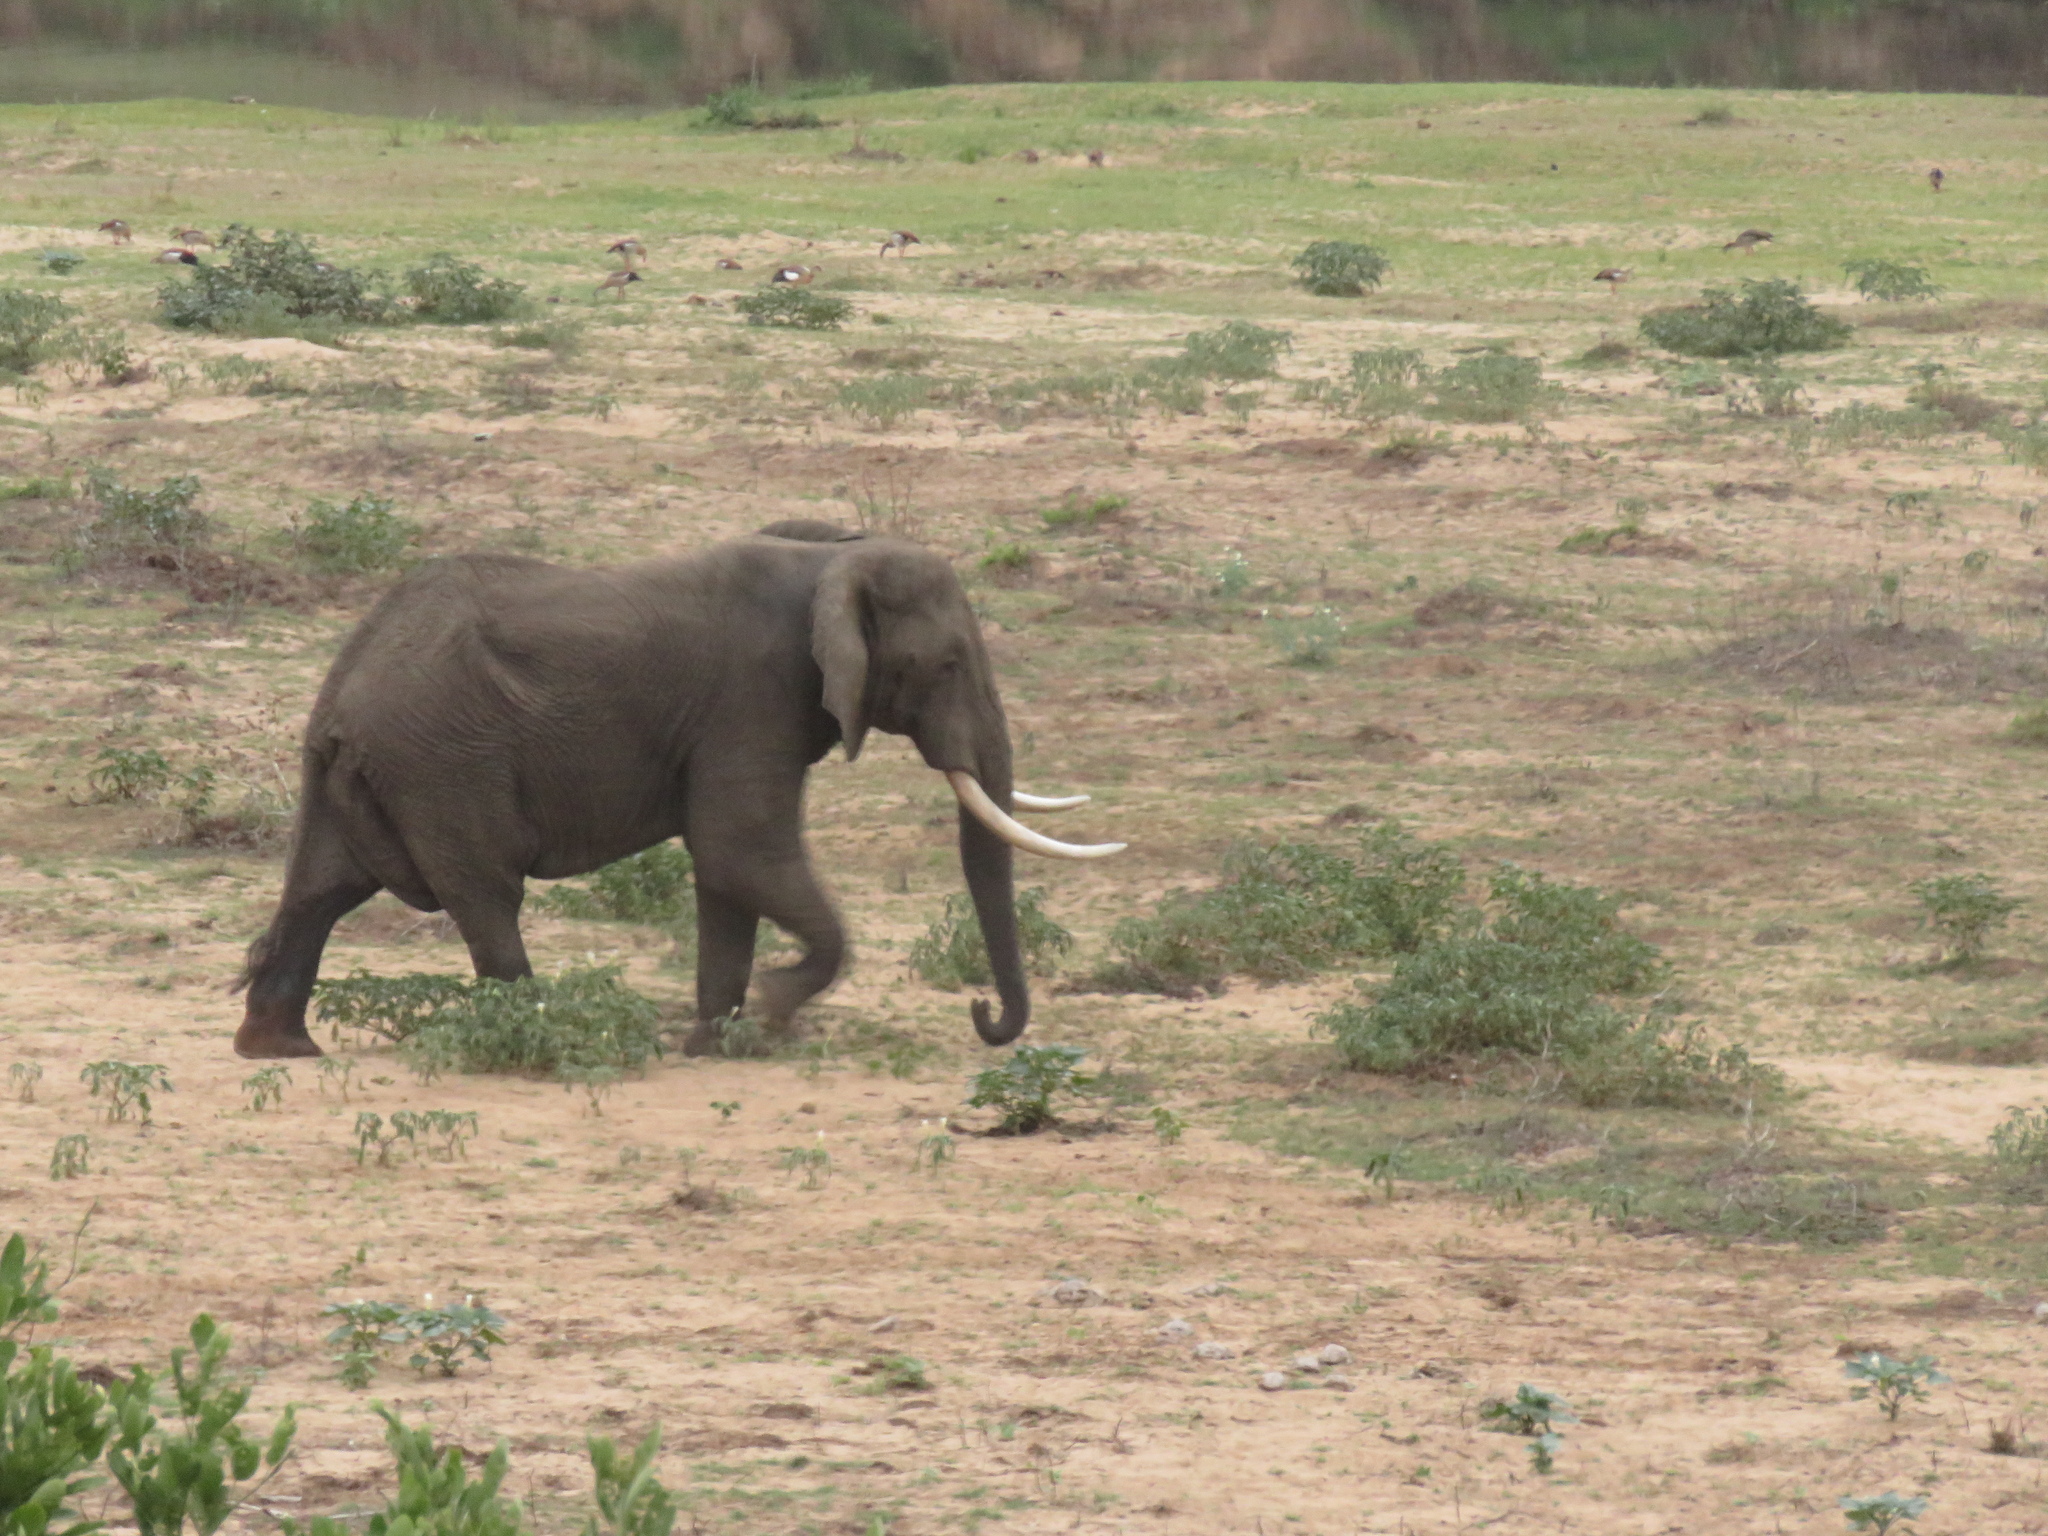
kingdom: Animalia
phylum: Chordata
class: Mammalia
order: Proboscidea
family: Elephantidae
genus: Loxodonta
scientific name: Loxodonta africana
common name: African elephant
